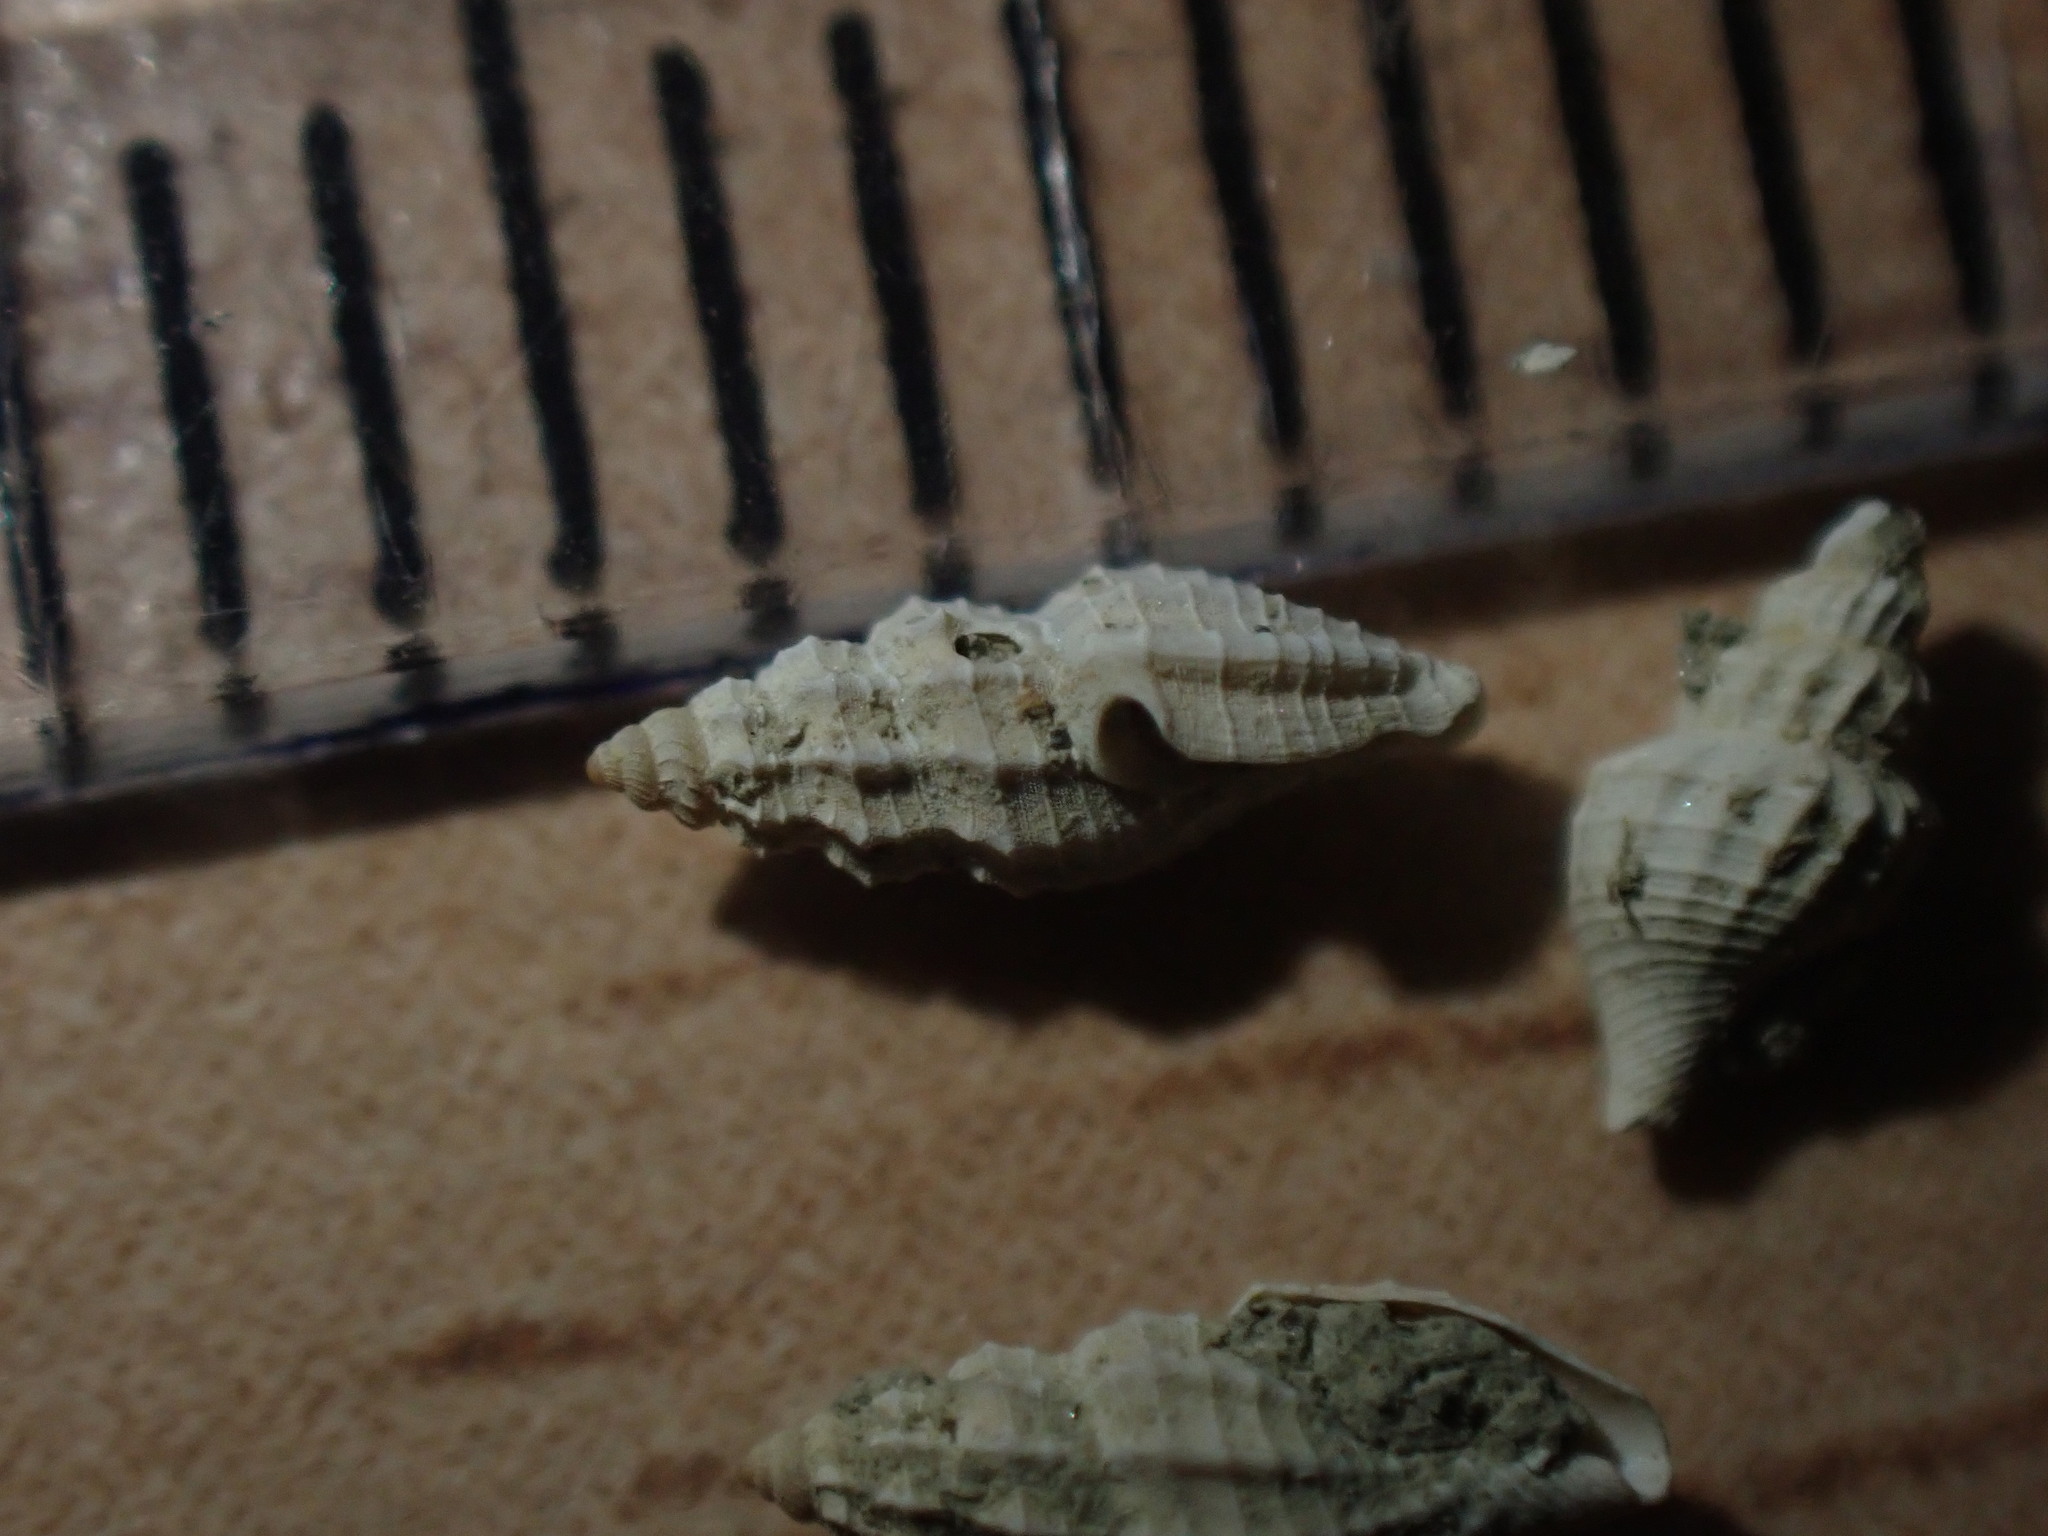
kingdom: Animalia
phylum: Mollusca
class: Gastropoda
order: Neogastropoda
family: Mangeliidae
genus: Heterocithara
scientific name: Heterocithara mediocris
